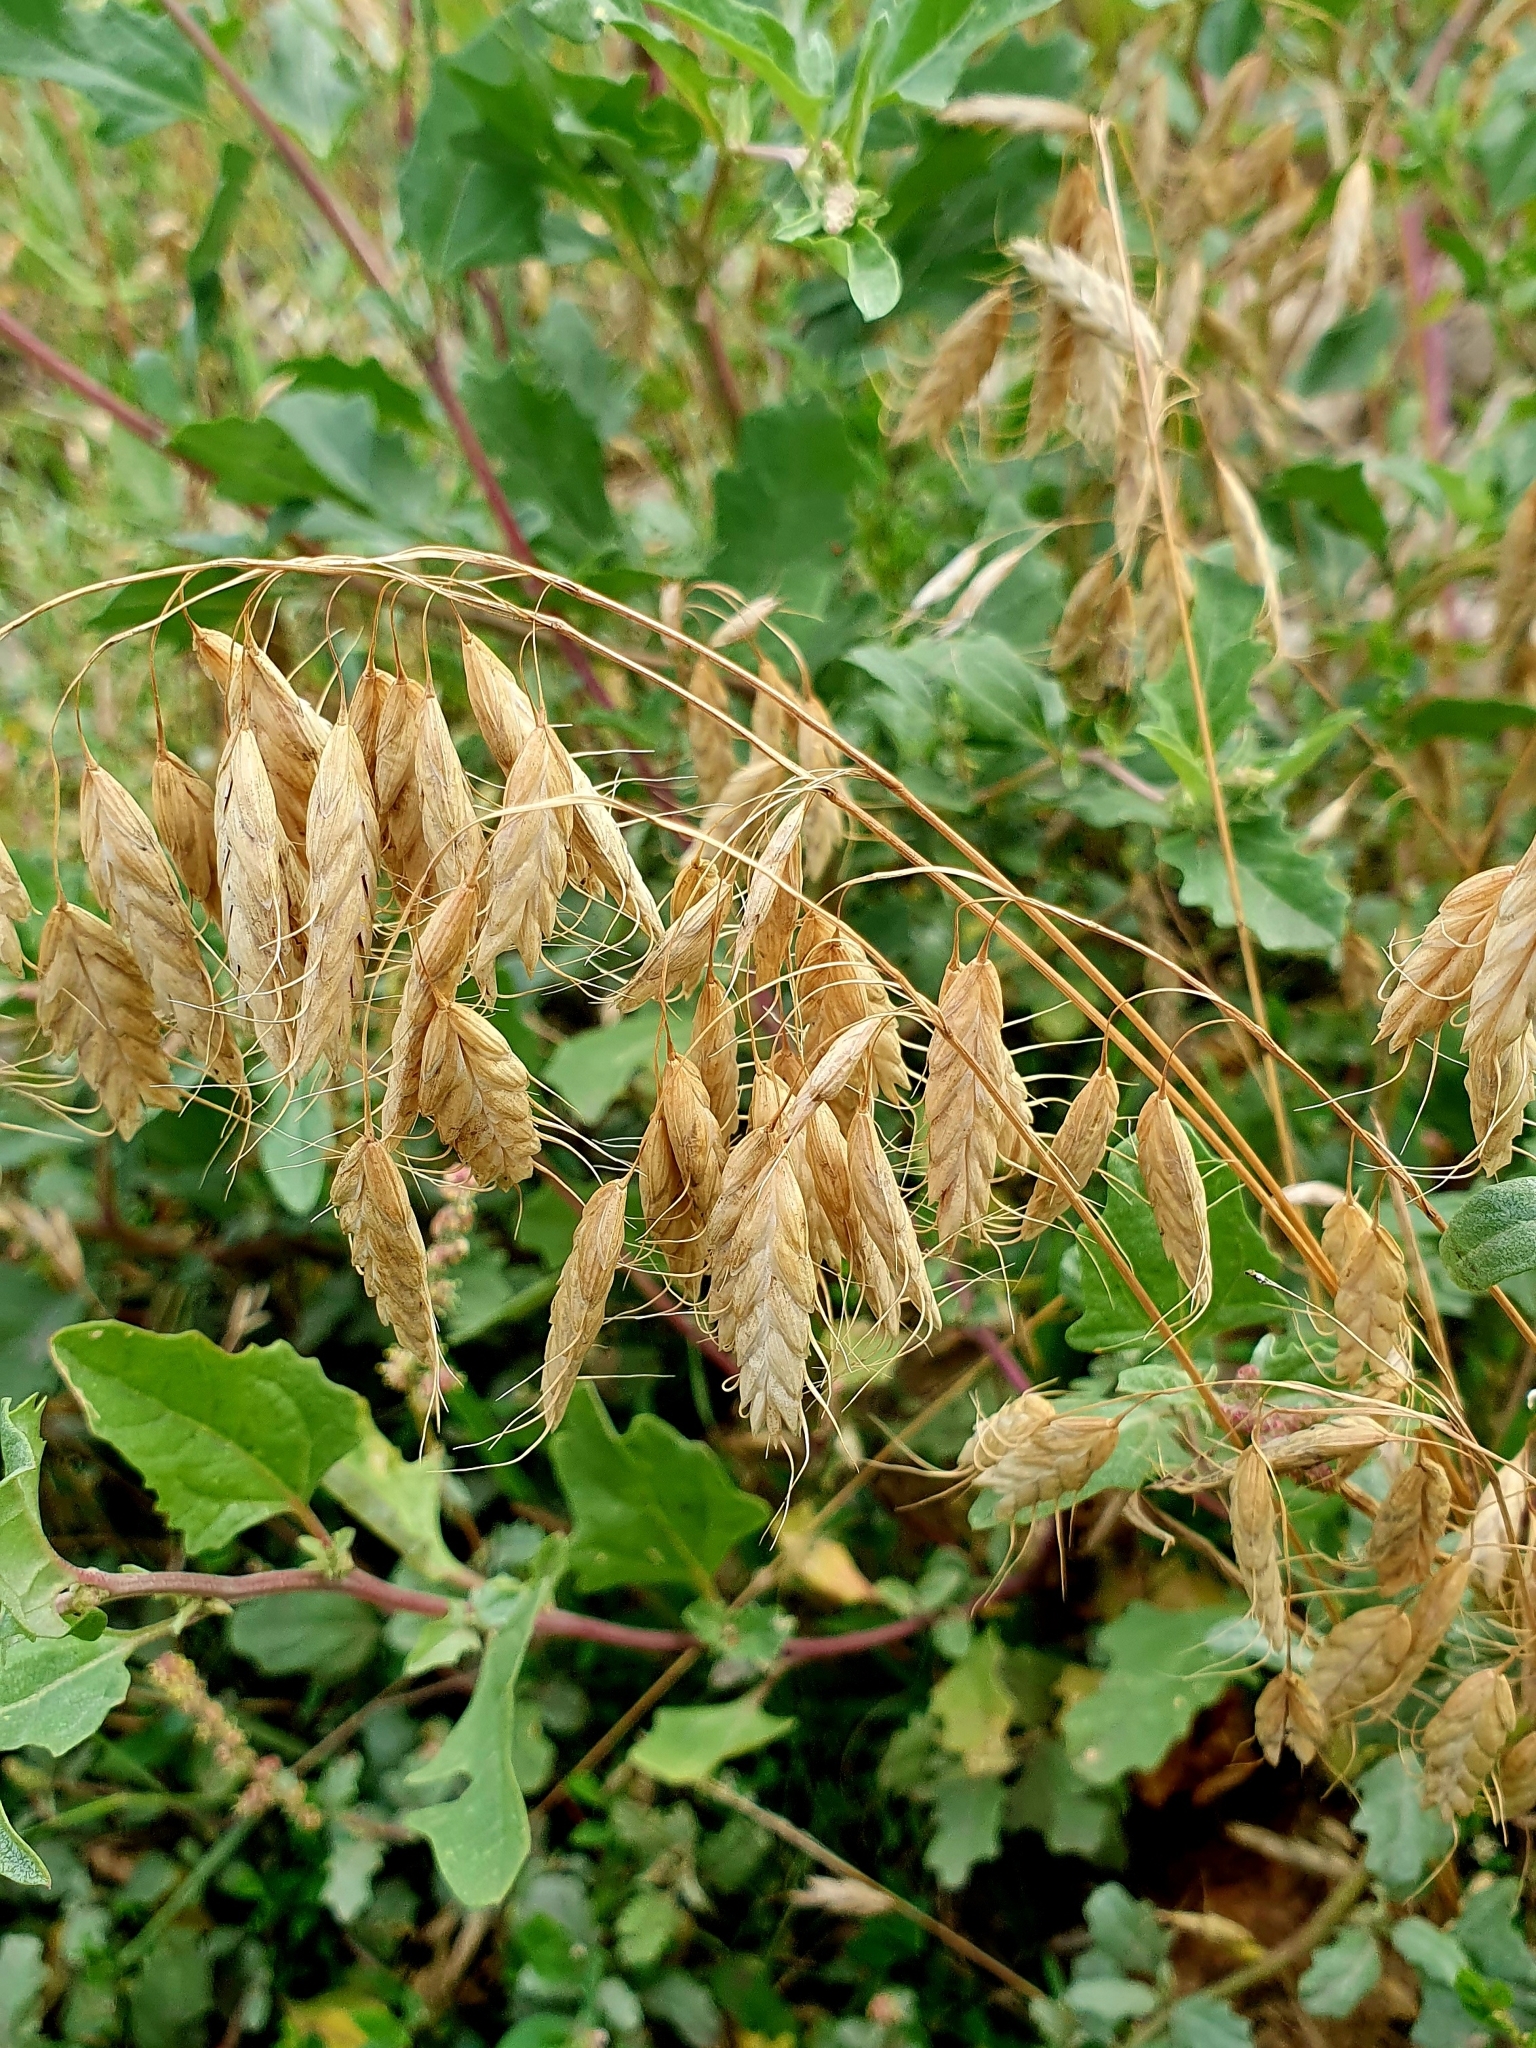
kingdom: Plantae
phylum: Tracheophyta
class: Liliopsida
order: Poales
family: Poaceae
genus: Bromus
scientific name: Bromus squarrosus
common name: Corn brome
